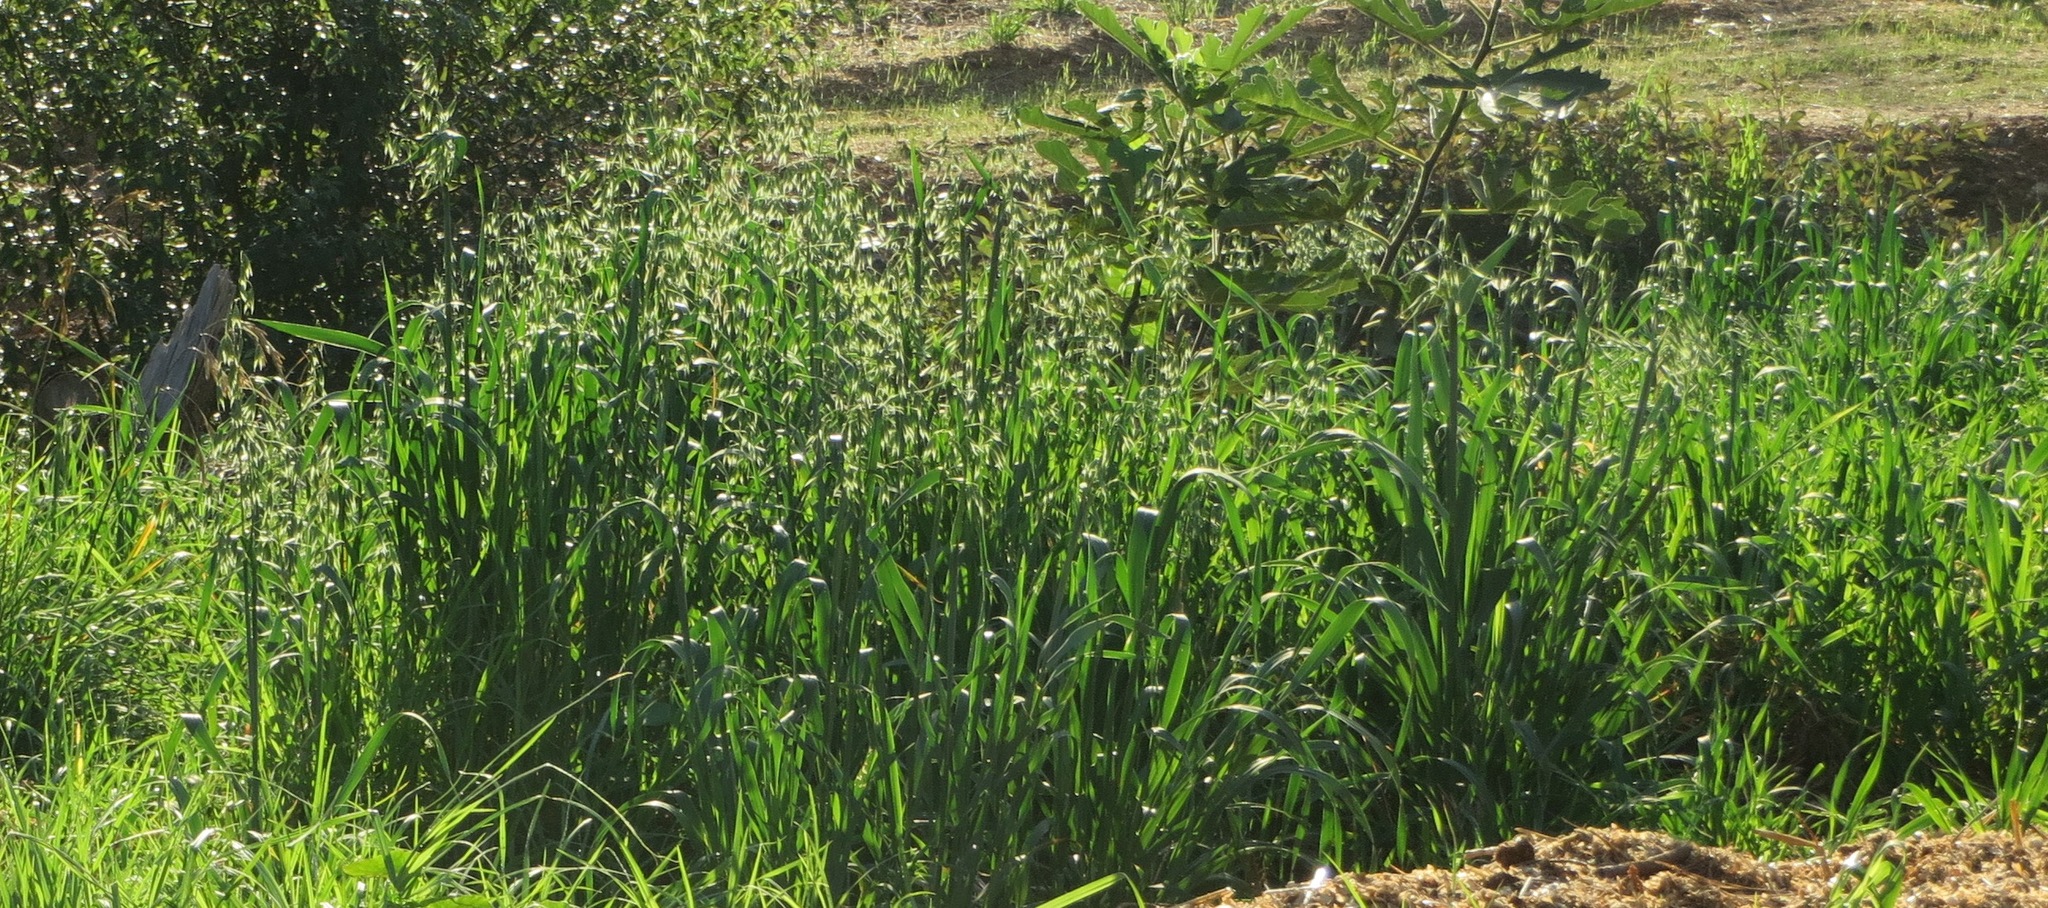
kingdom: Plantae
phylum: Tracheophyta
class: Liliopsida
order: Poales
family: Poaceae
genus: Avena
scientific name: Avena fatua
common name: Wild oat
